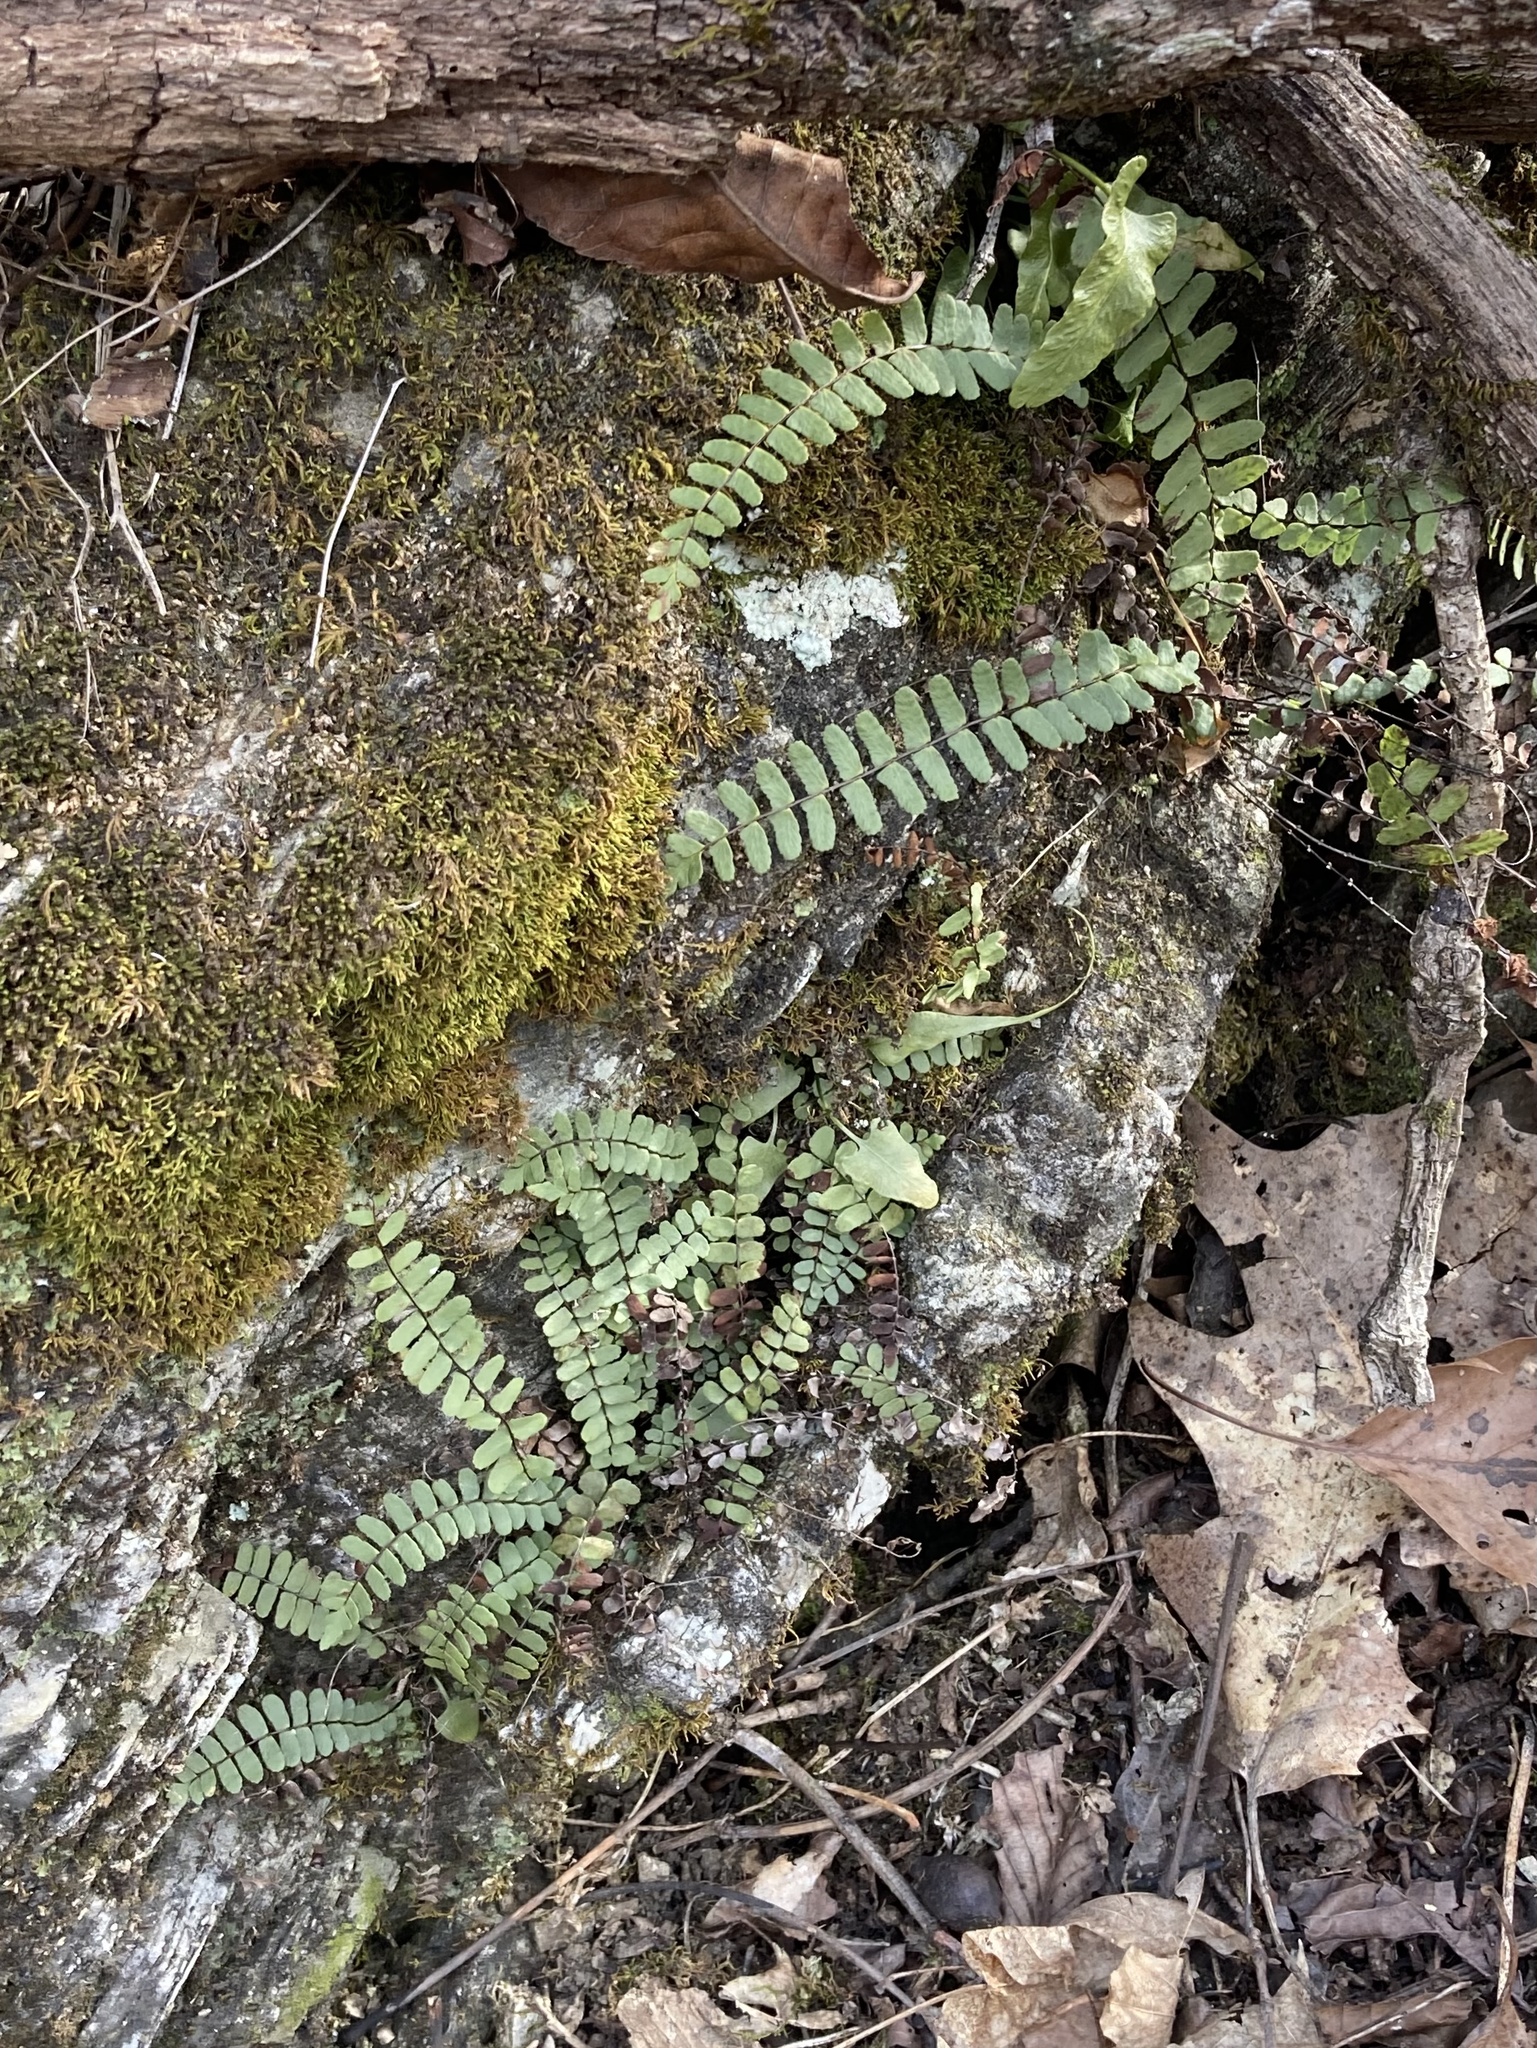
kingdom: Plantae
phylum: Tracheophyta
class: Polypodiopsida
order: Polypodiales
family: Aspleniaceae
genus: Asplenium
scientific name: Asplenium resiliens
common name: Blackstem spleenwort
